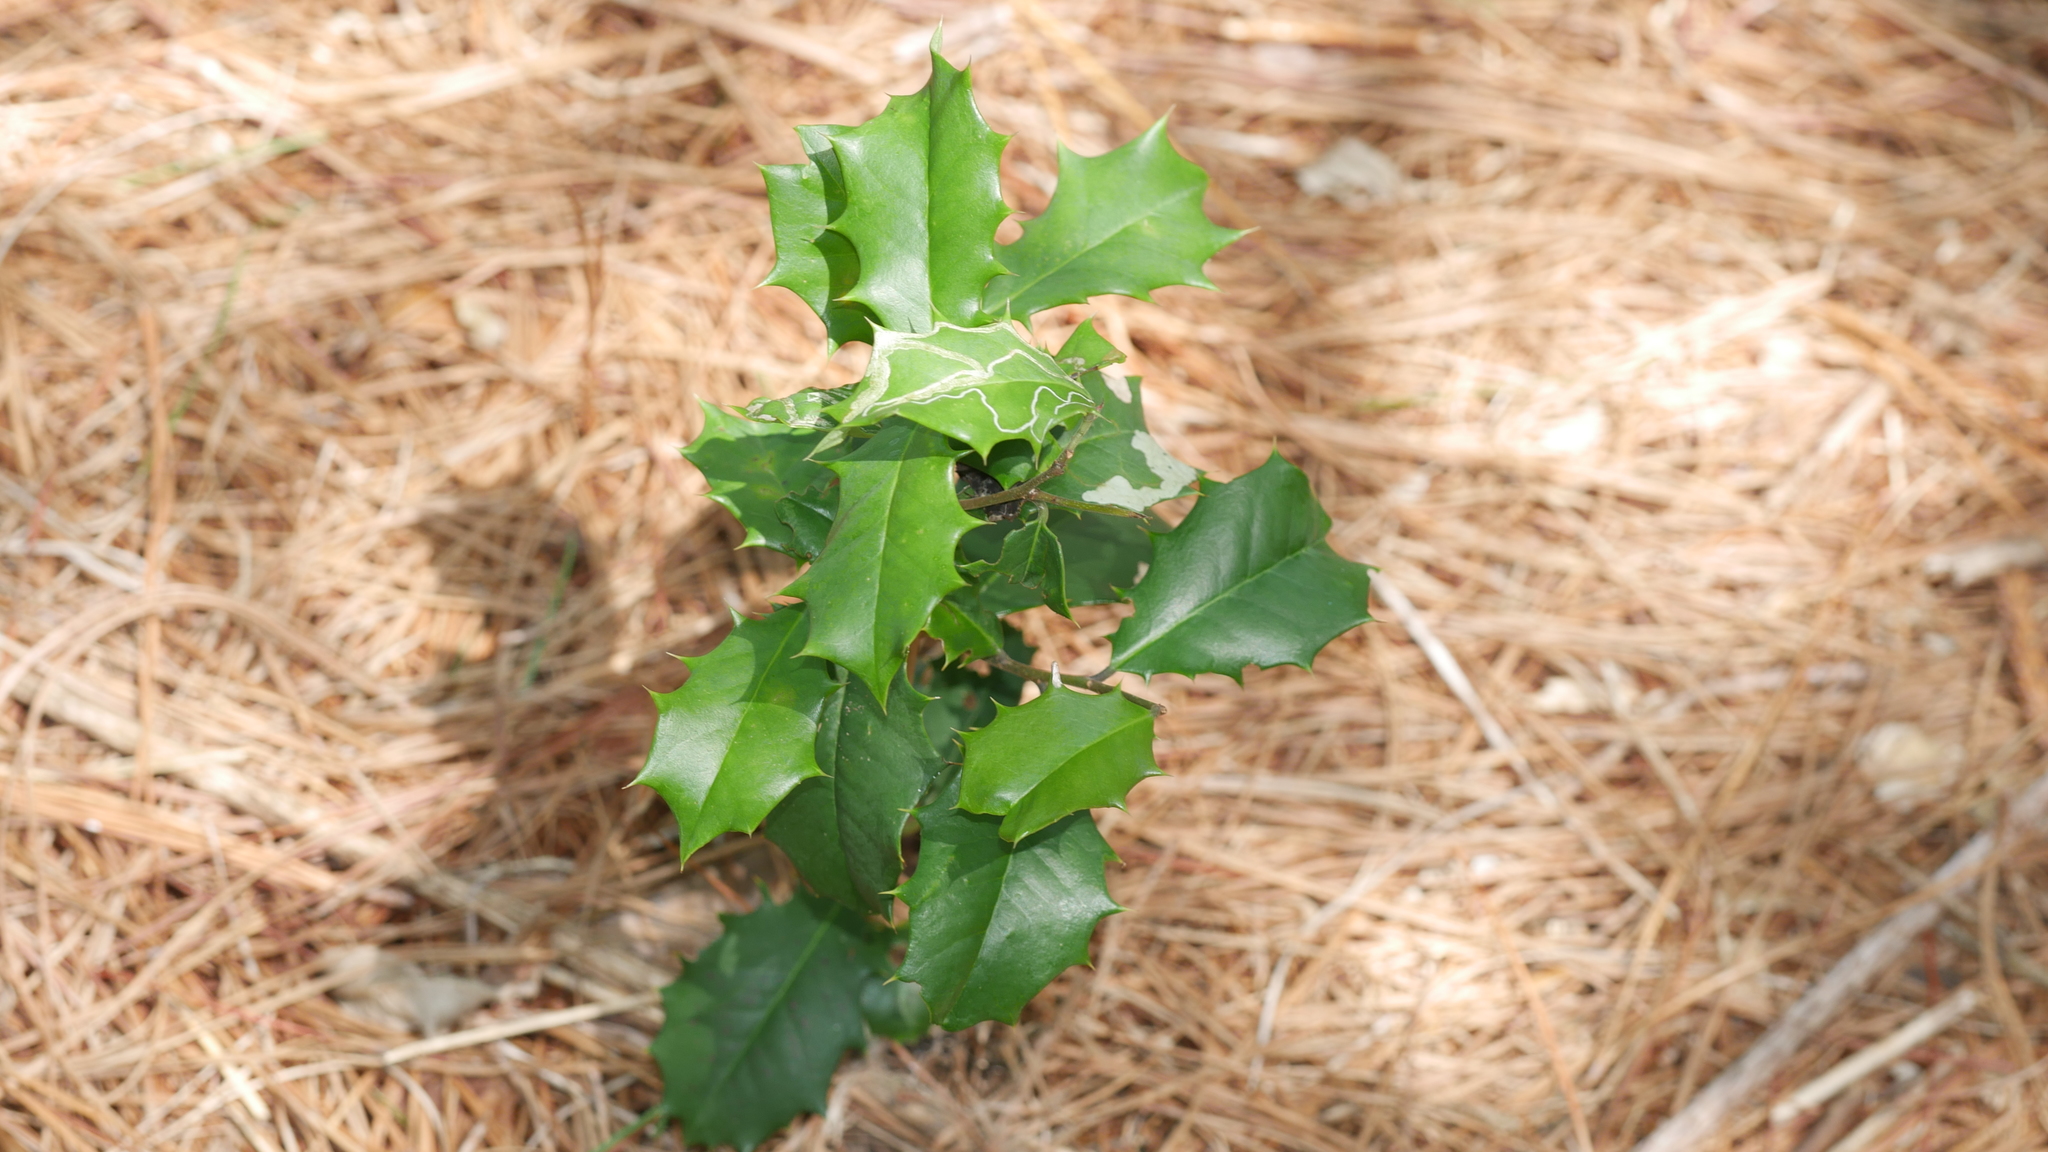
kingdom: Plantae
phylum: Tracheophyta
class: Magnoliopsida
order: Aquifoliales
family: Aquifoliaceae
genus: Ilex
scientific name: Ilex opaca
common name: American holly
